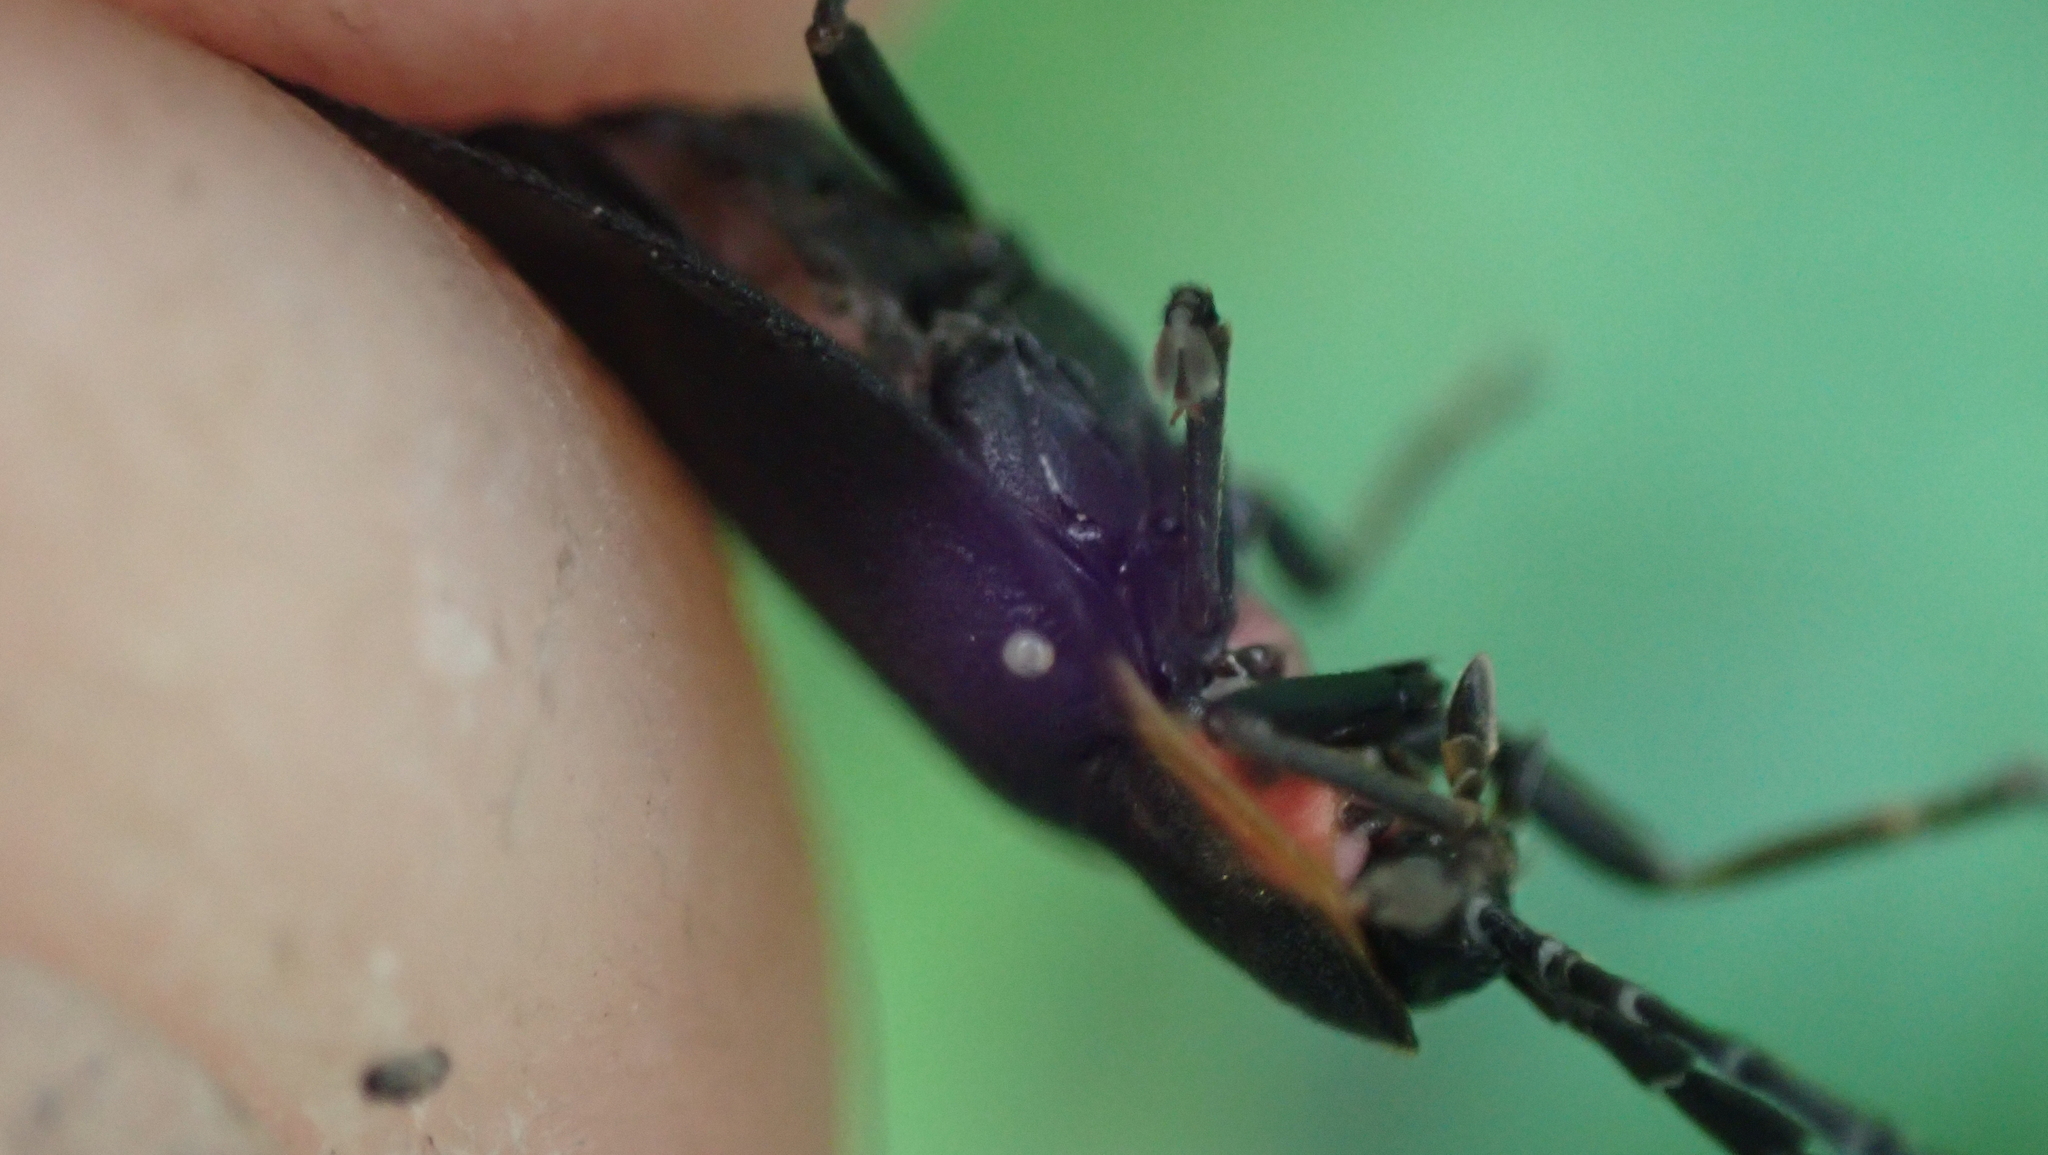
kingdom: Animalia
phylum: Arthropoda
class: Insecta
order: Coleoptera
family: Lampyridae
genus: Lucidota
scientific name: Lucidota atra
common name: Black firefly
